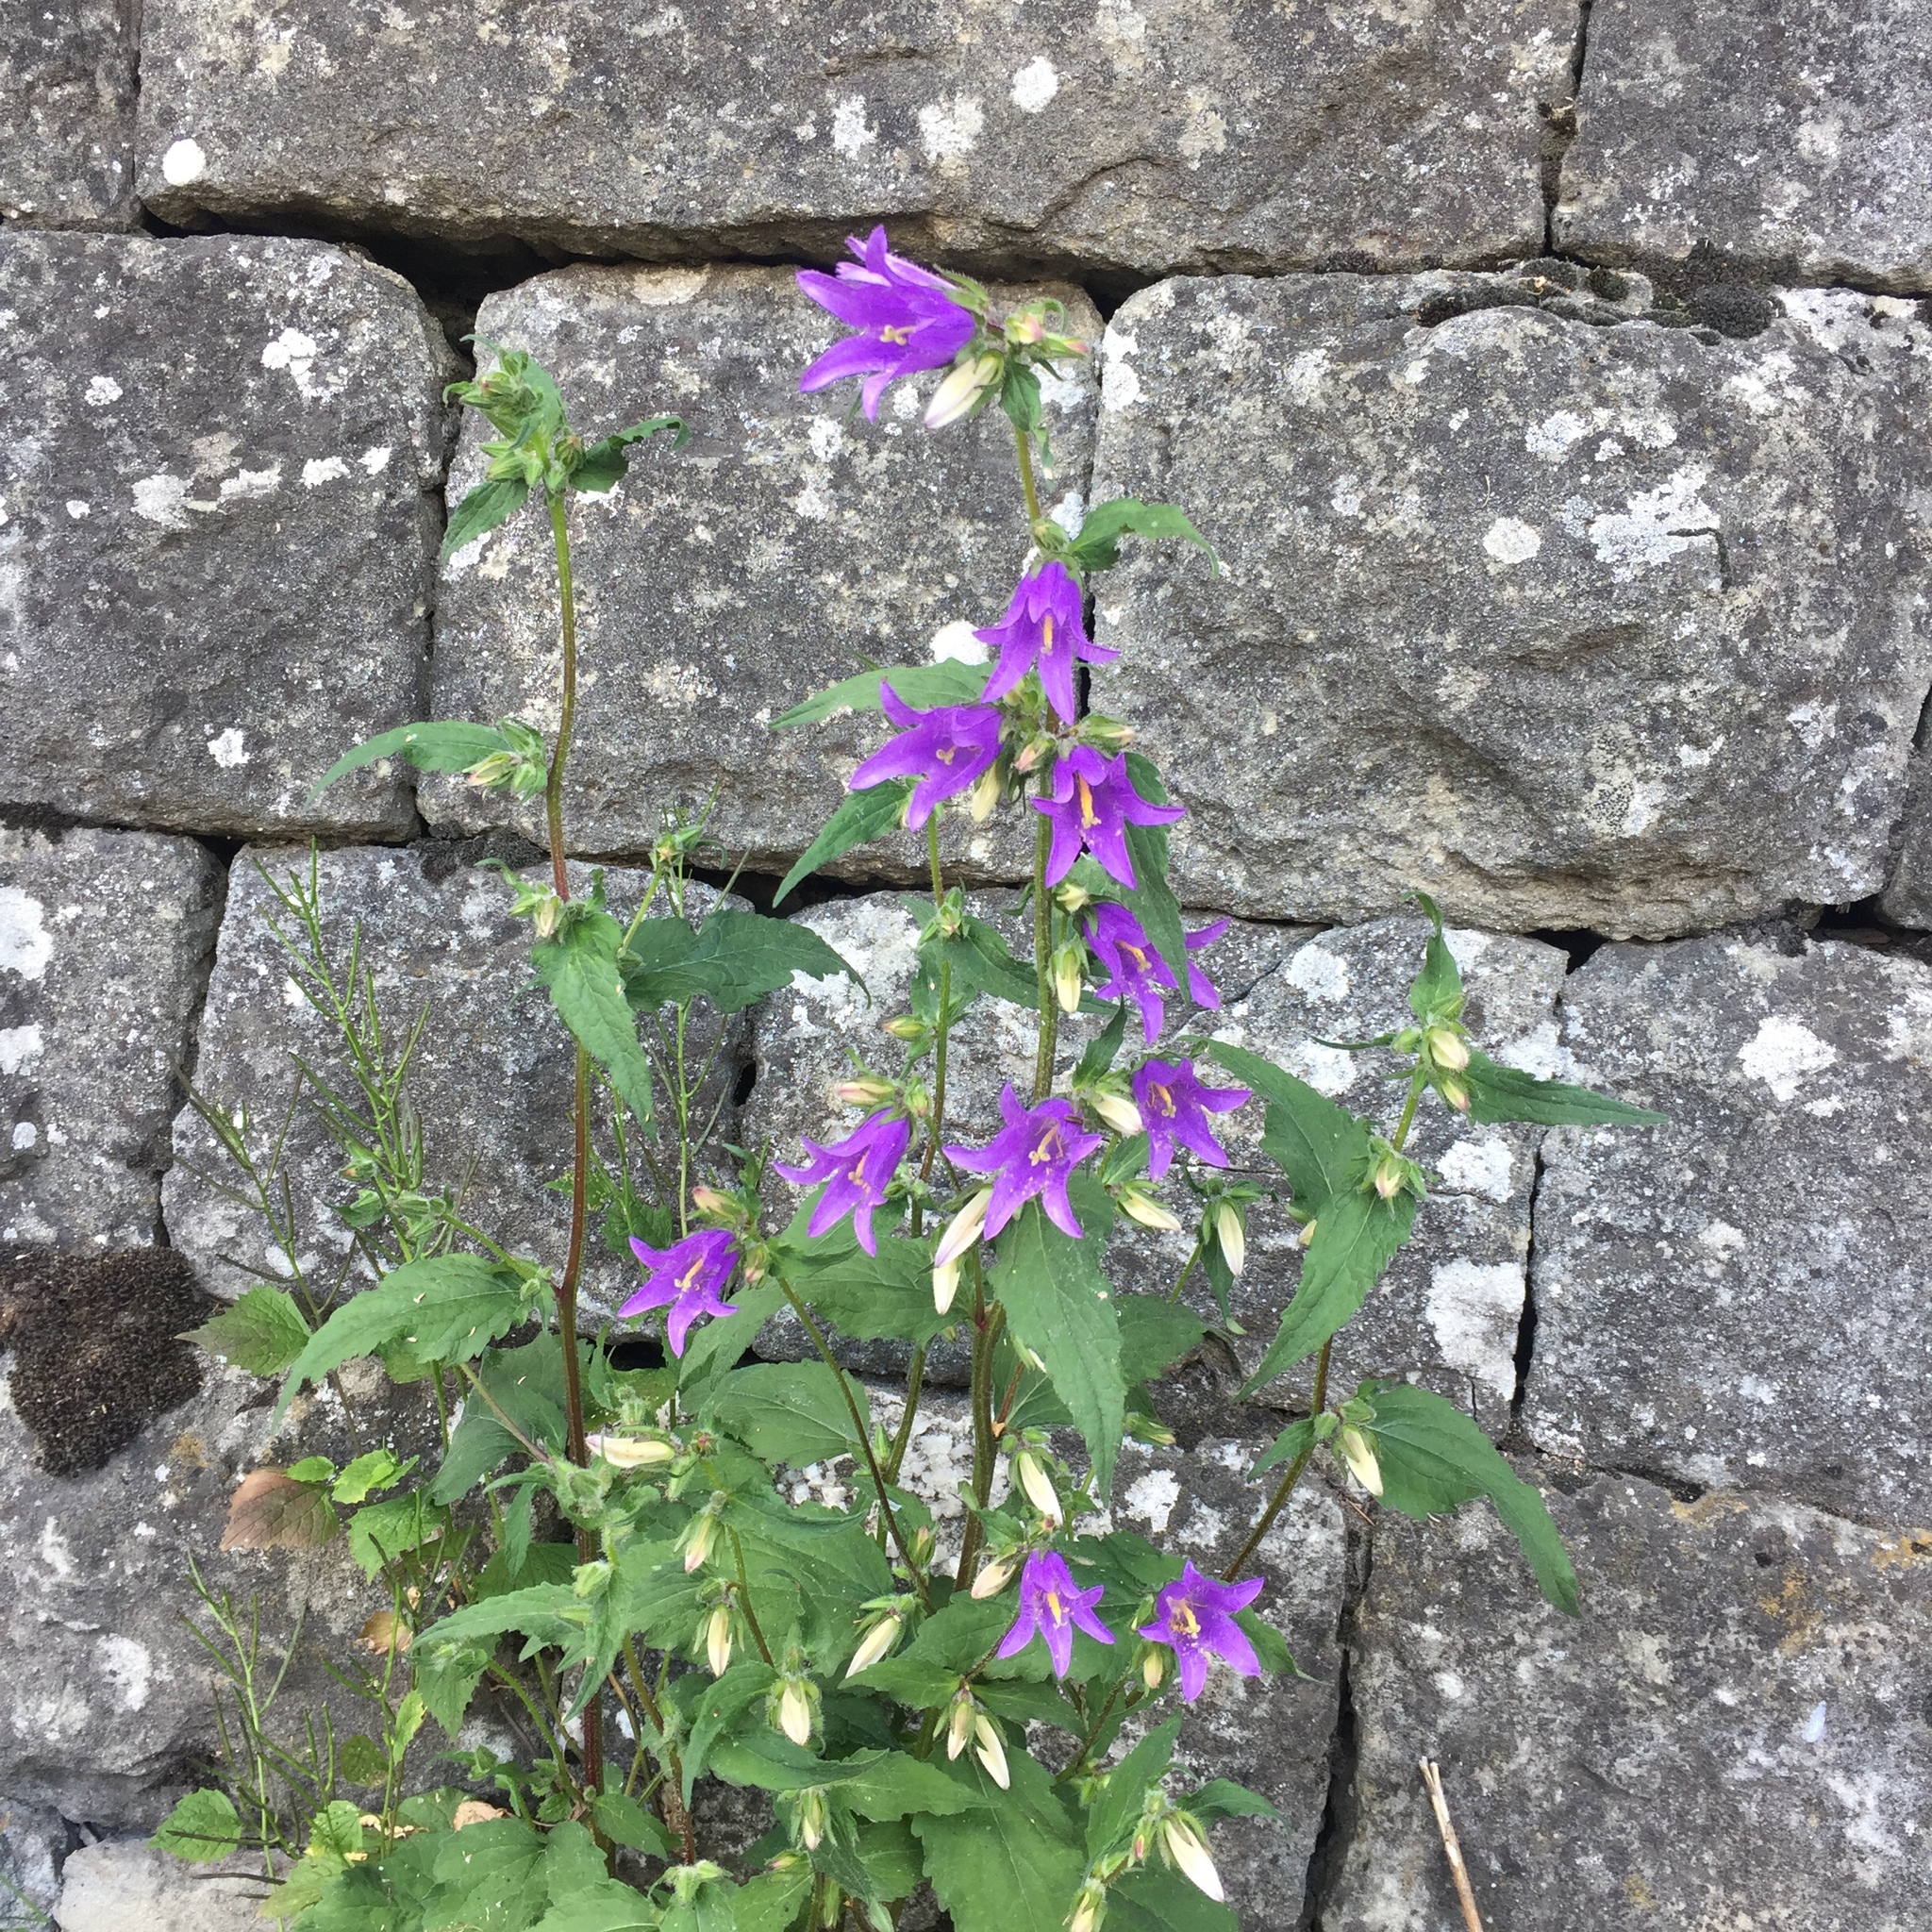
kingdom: Plantae
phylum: Tracheophyta
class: Magnoliopsida
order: Asterales
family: Campanulaceae
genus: Campanula
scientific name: Campanula trachelium
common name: Nettle-leaved bellflower
